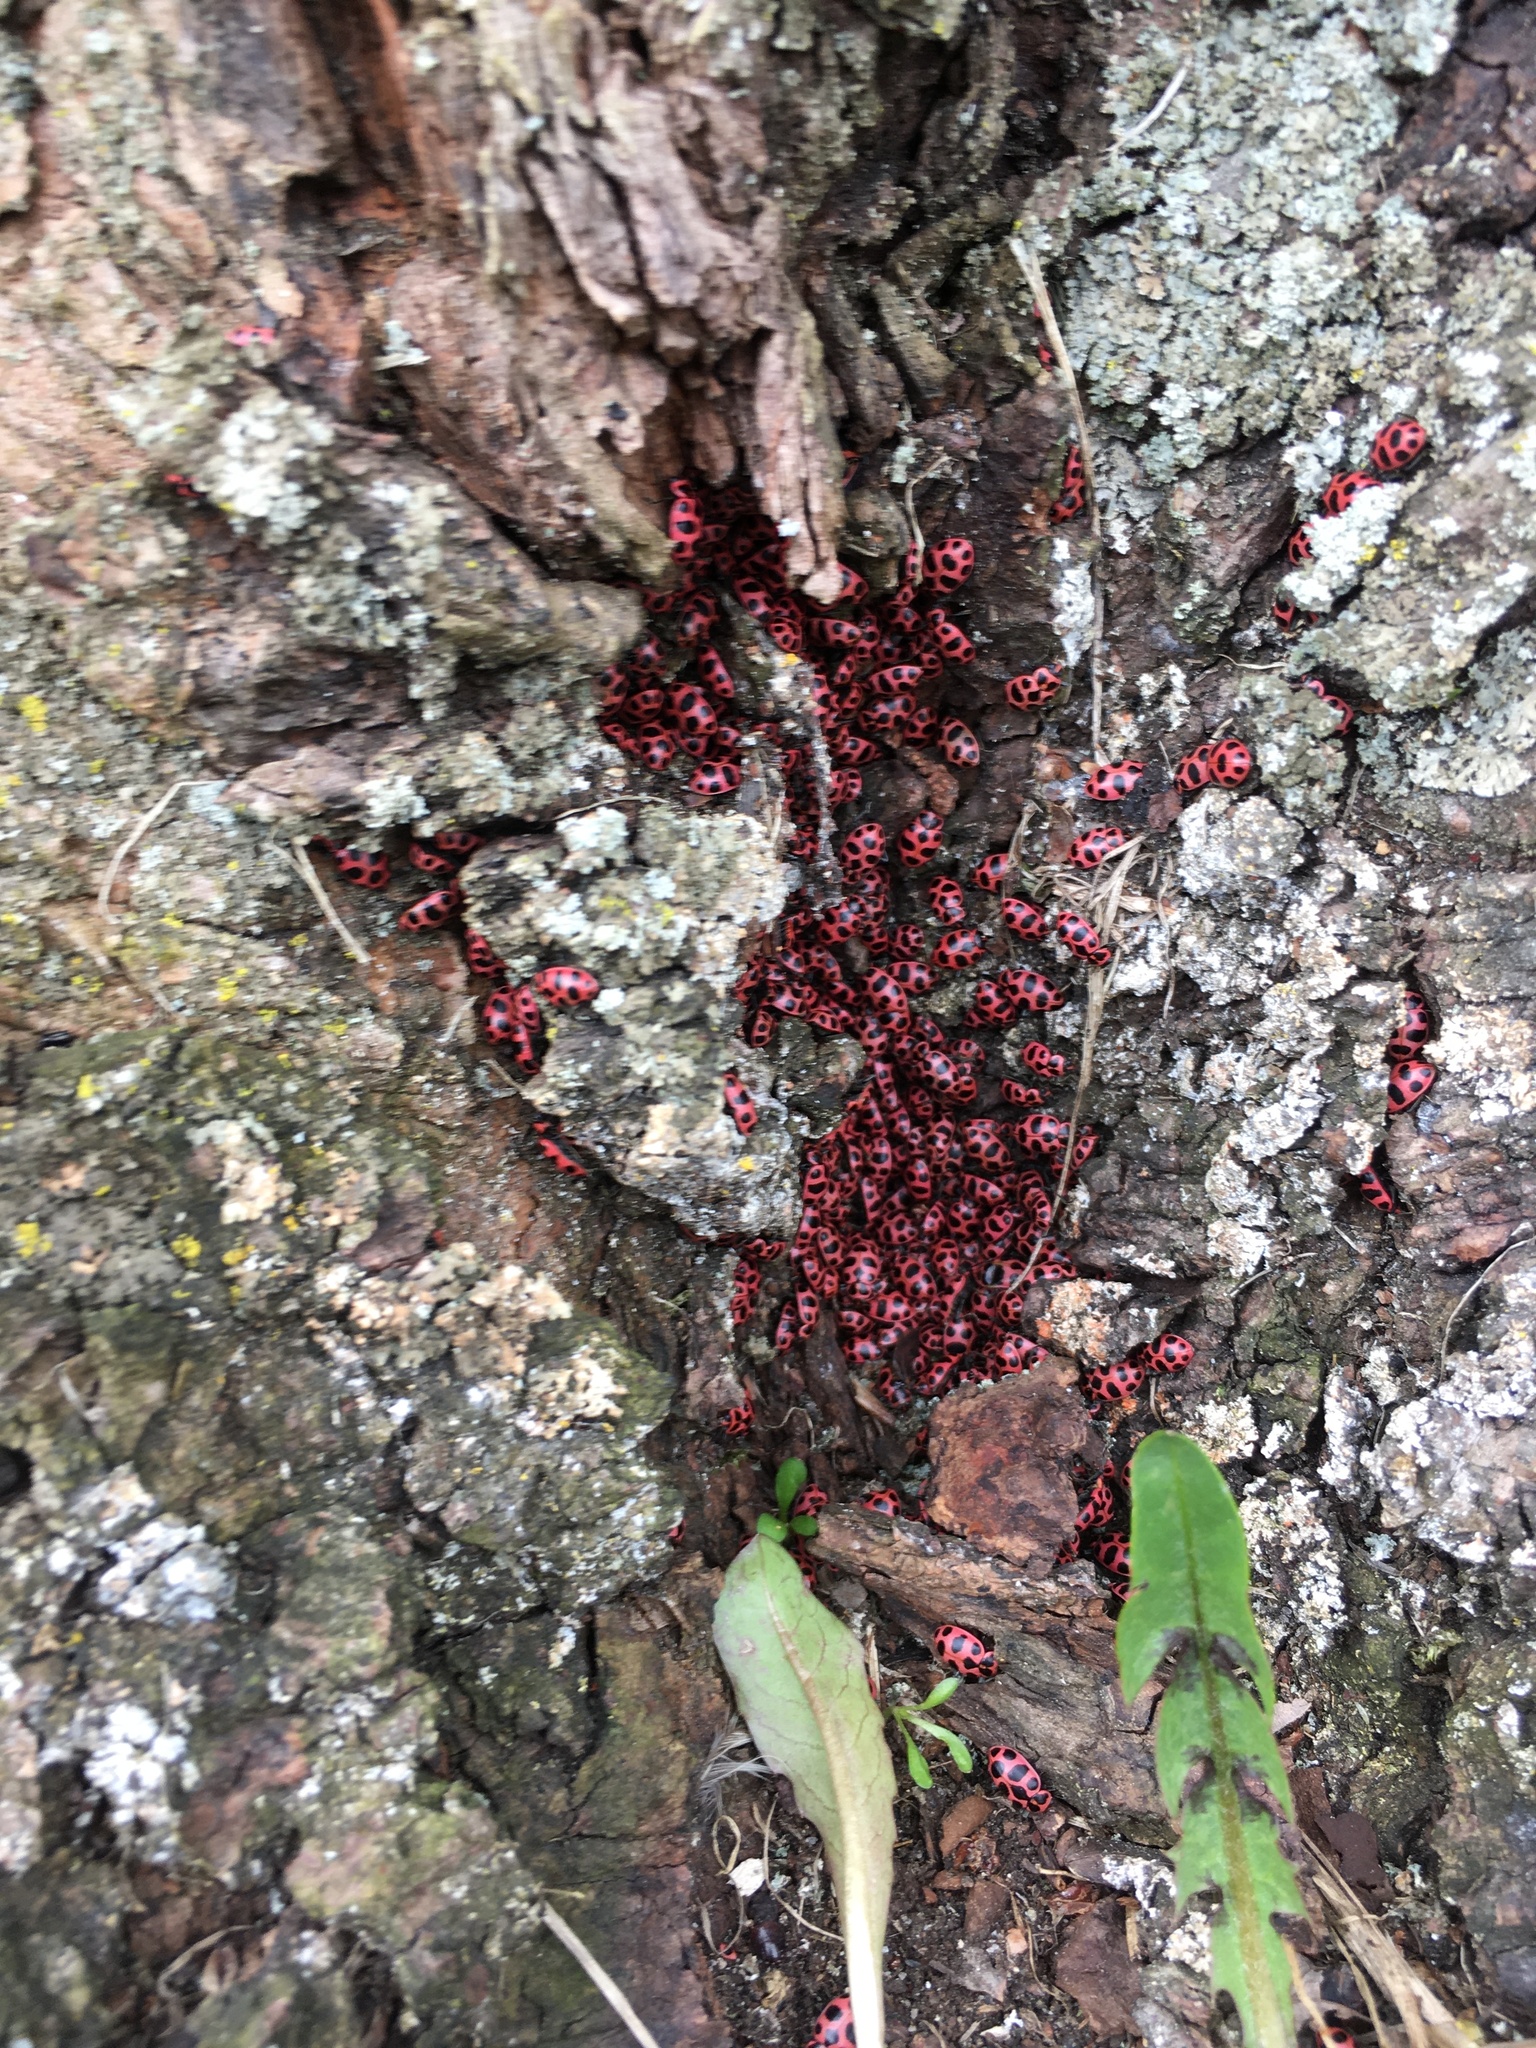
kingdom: Animalia
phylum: Arthropoda
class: Insecta
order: Coleoptera
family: Coccinellidae
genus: Coleomegilla
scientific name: Coleomegilla maculata
